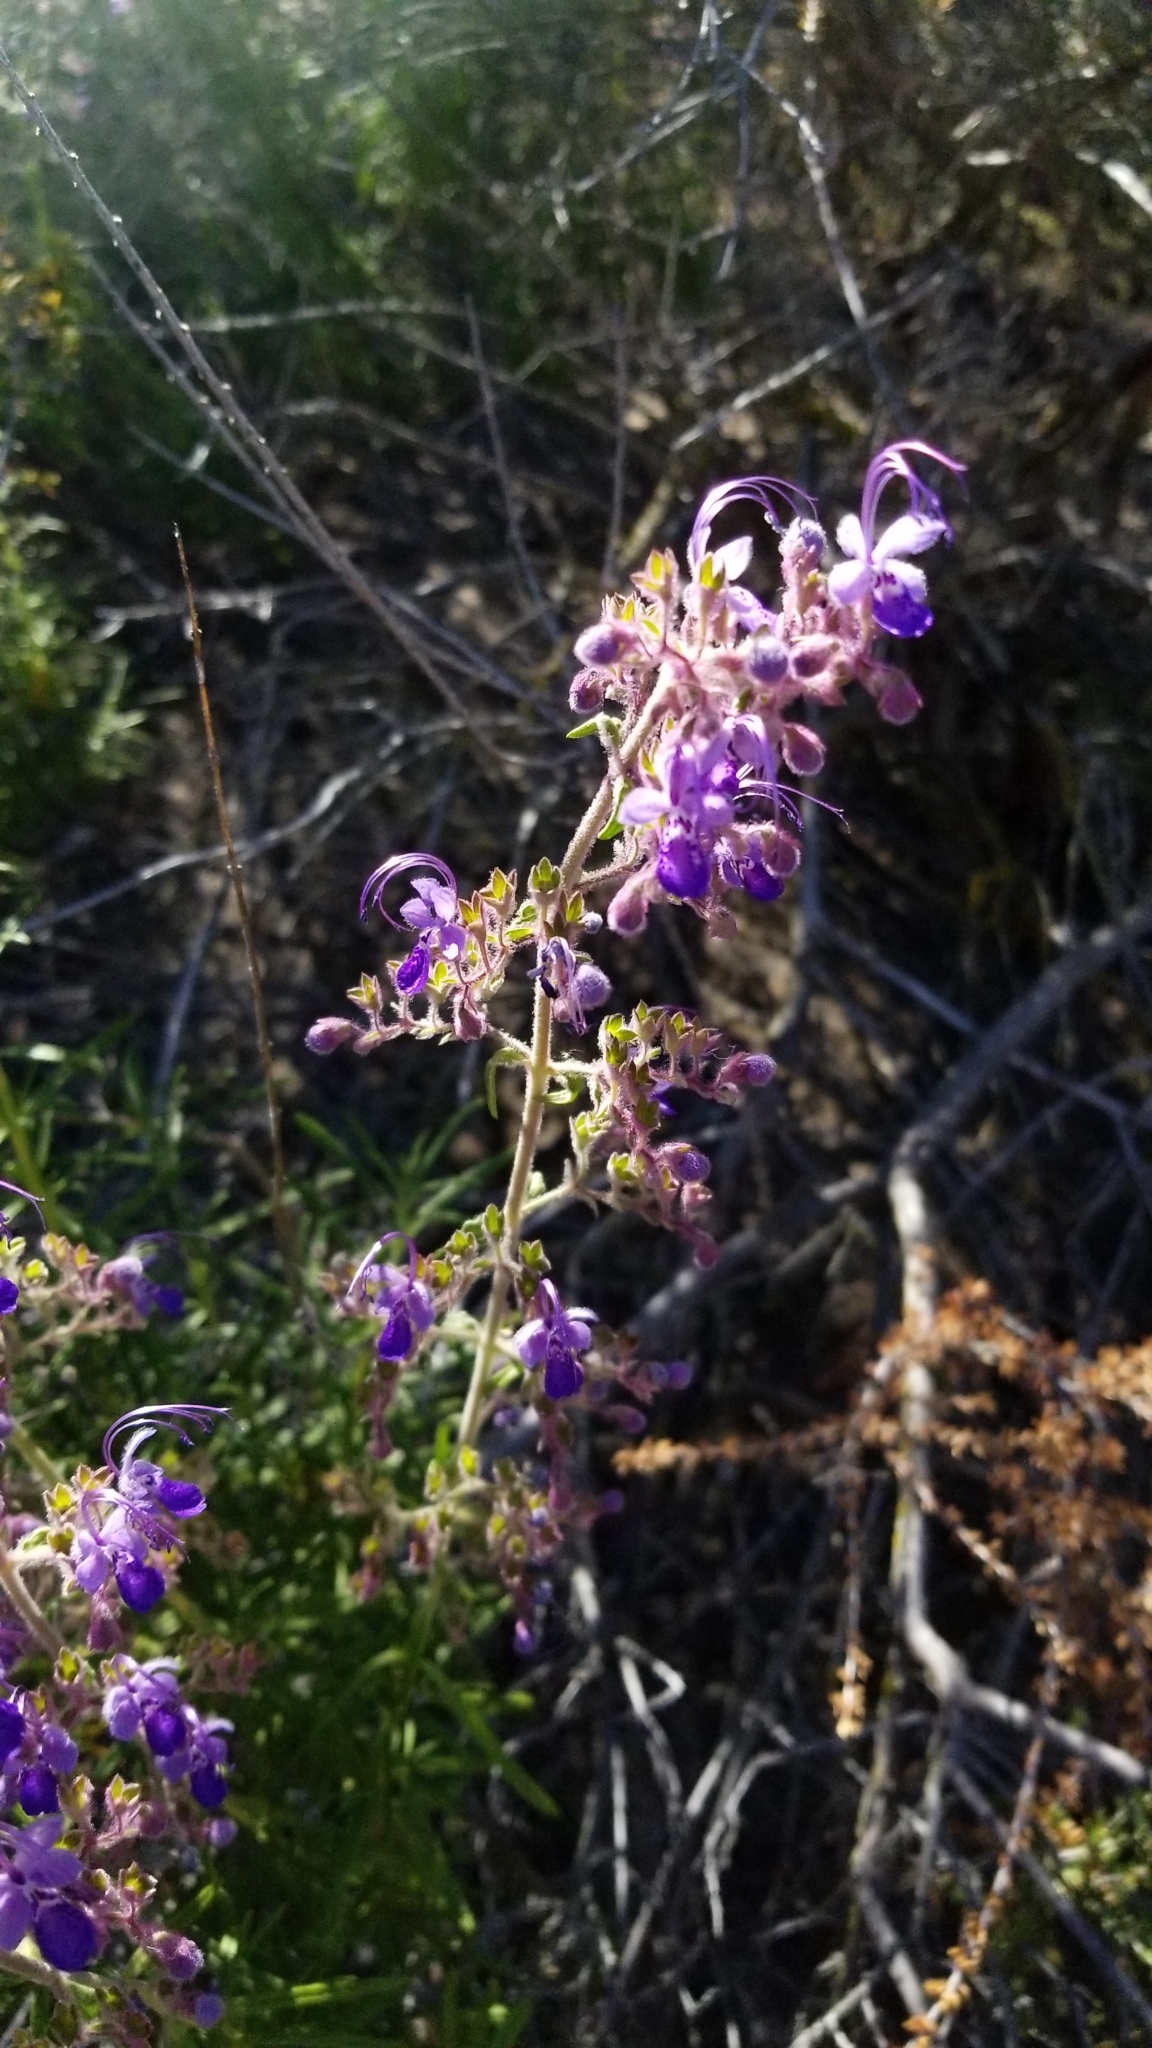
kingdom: Plantae
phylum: Tracheophyta
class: Magnoliopsida
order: Lamiales
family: Lamiaceae
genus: Trichostema
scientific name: Trichostema parishii
